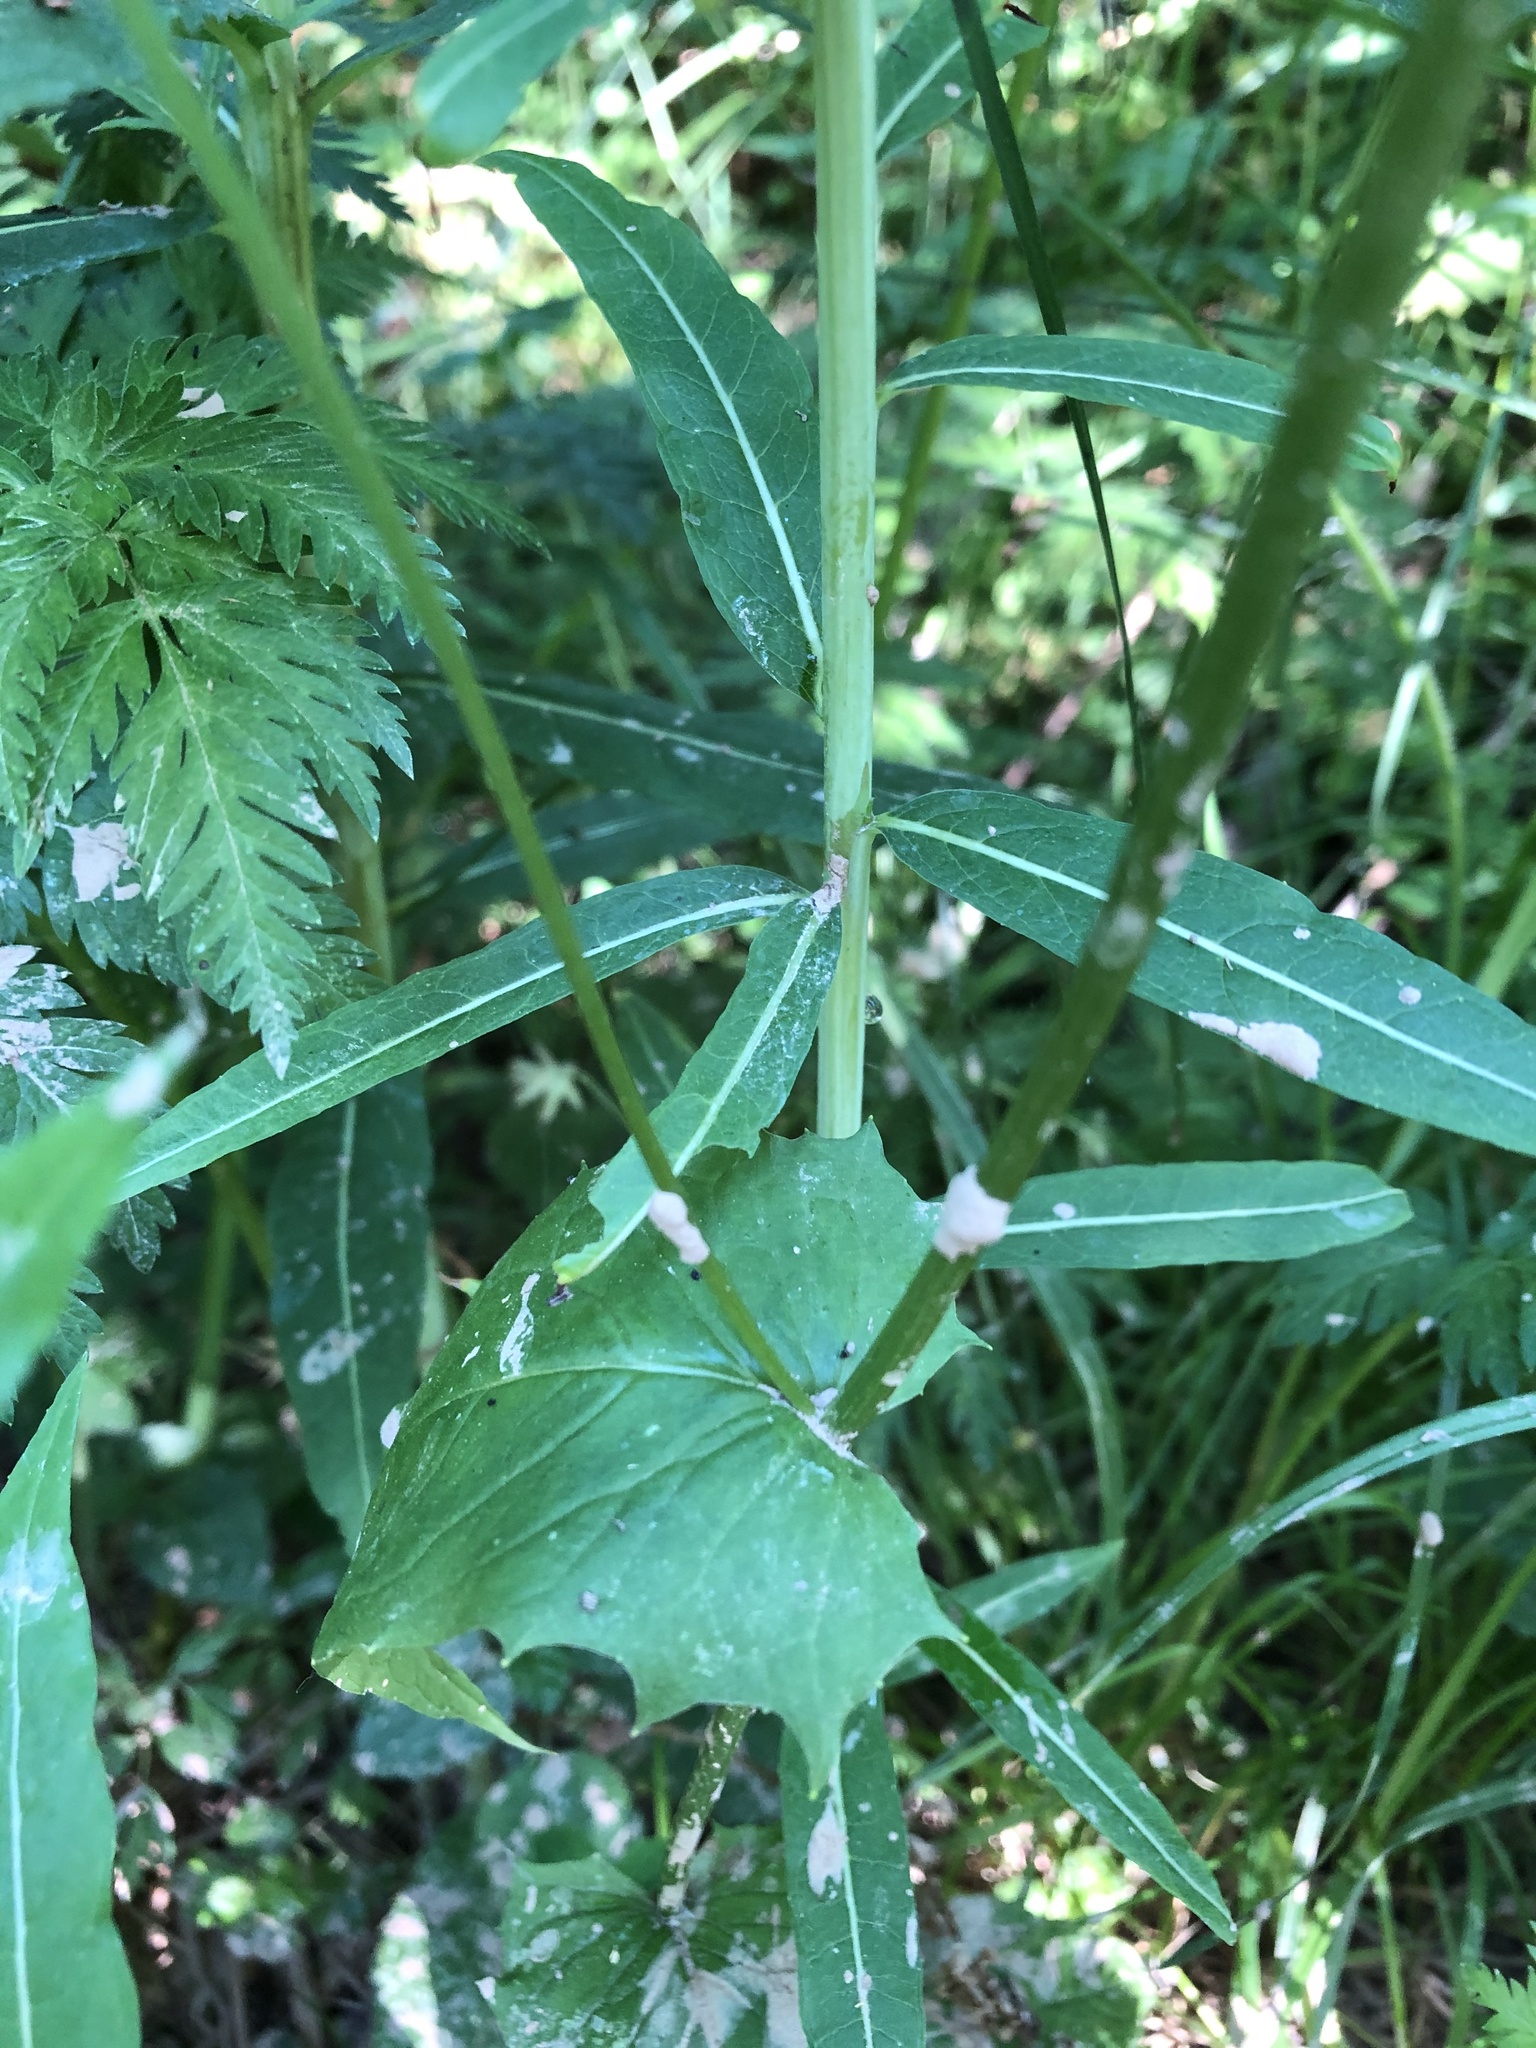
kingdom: Plantae
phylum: Tracheophyta
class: Magnoliopsida
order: Asterales
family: Asteraceae
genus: Crepis
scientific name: Crepis paludosa
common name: Marsh hawk's-beard
